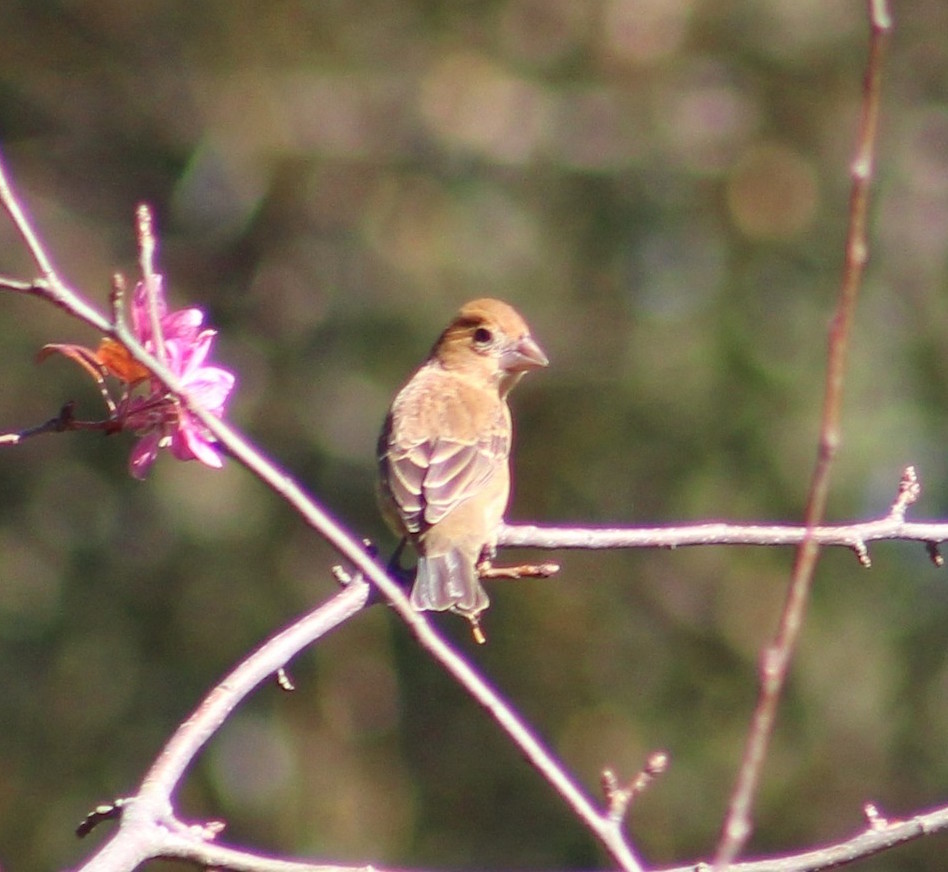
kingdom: Animalia
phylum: Chordata
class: Aves
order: Passeriformes
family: Cardinalidae
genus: Passerina
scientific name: Passerina caerulea
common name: Blue grosbeak
